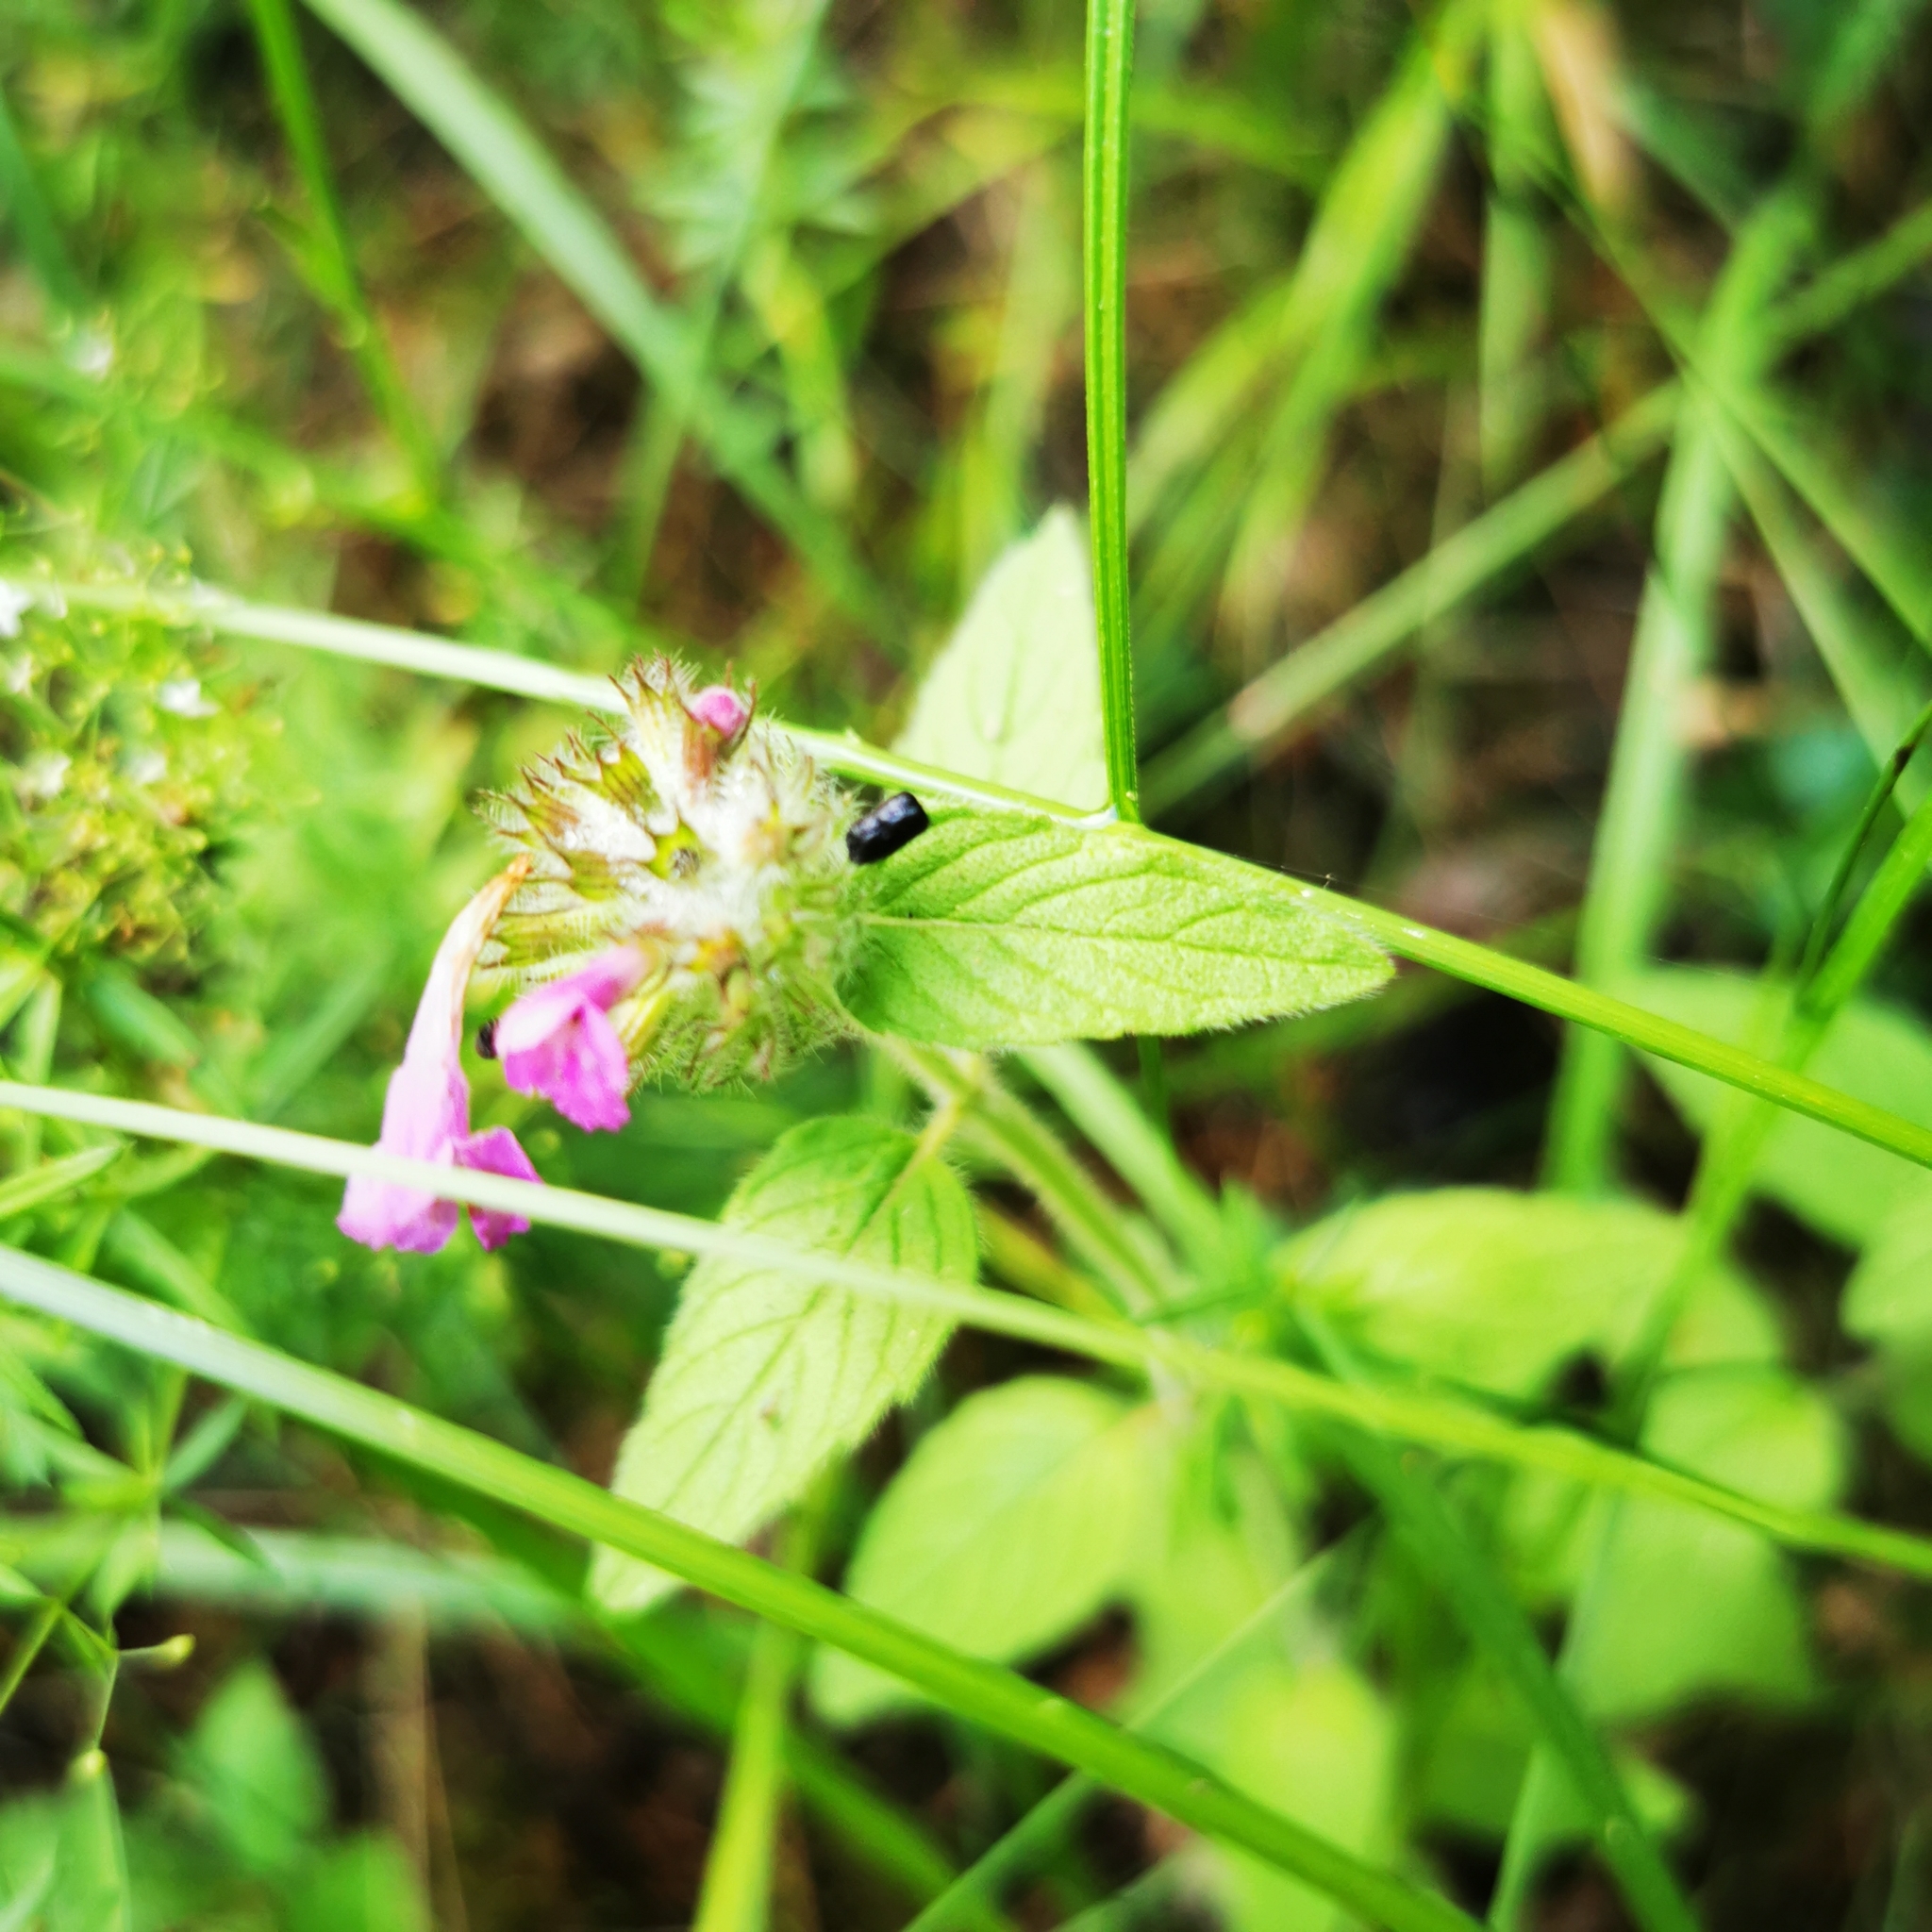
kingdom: Plantae
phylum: Tracheophyta
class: Magnoliopsida
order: Lamiales
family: Lamiaceae
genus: Clinopodium
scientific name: Clinopodium vulgare
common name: Wild basil
